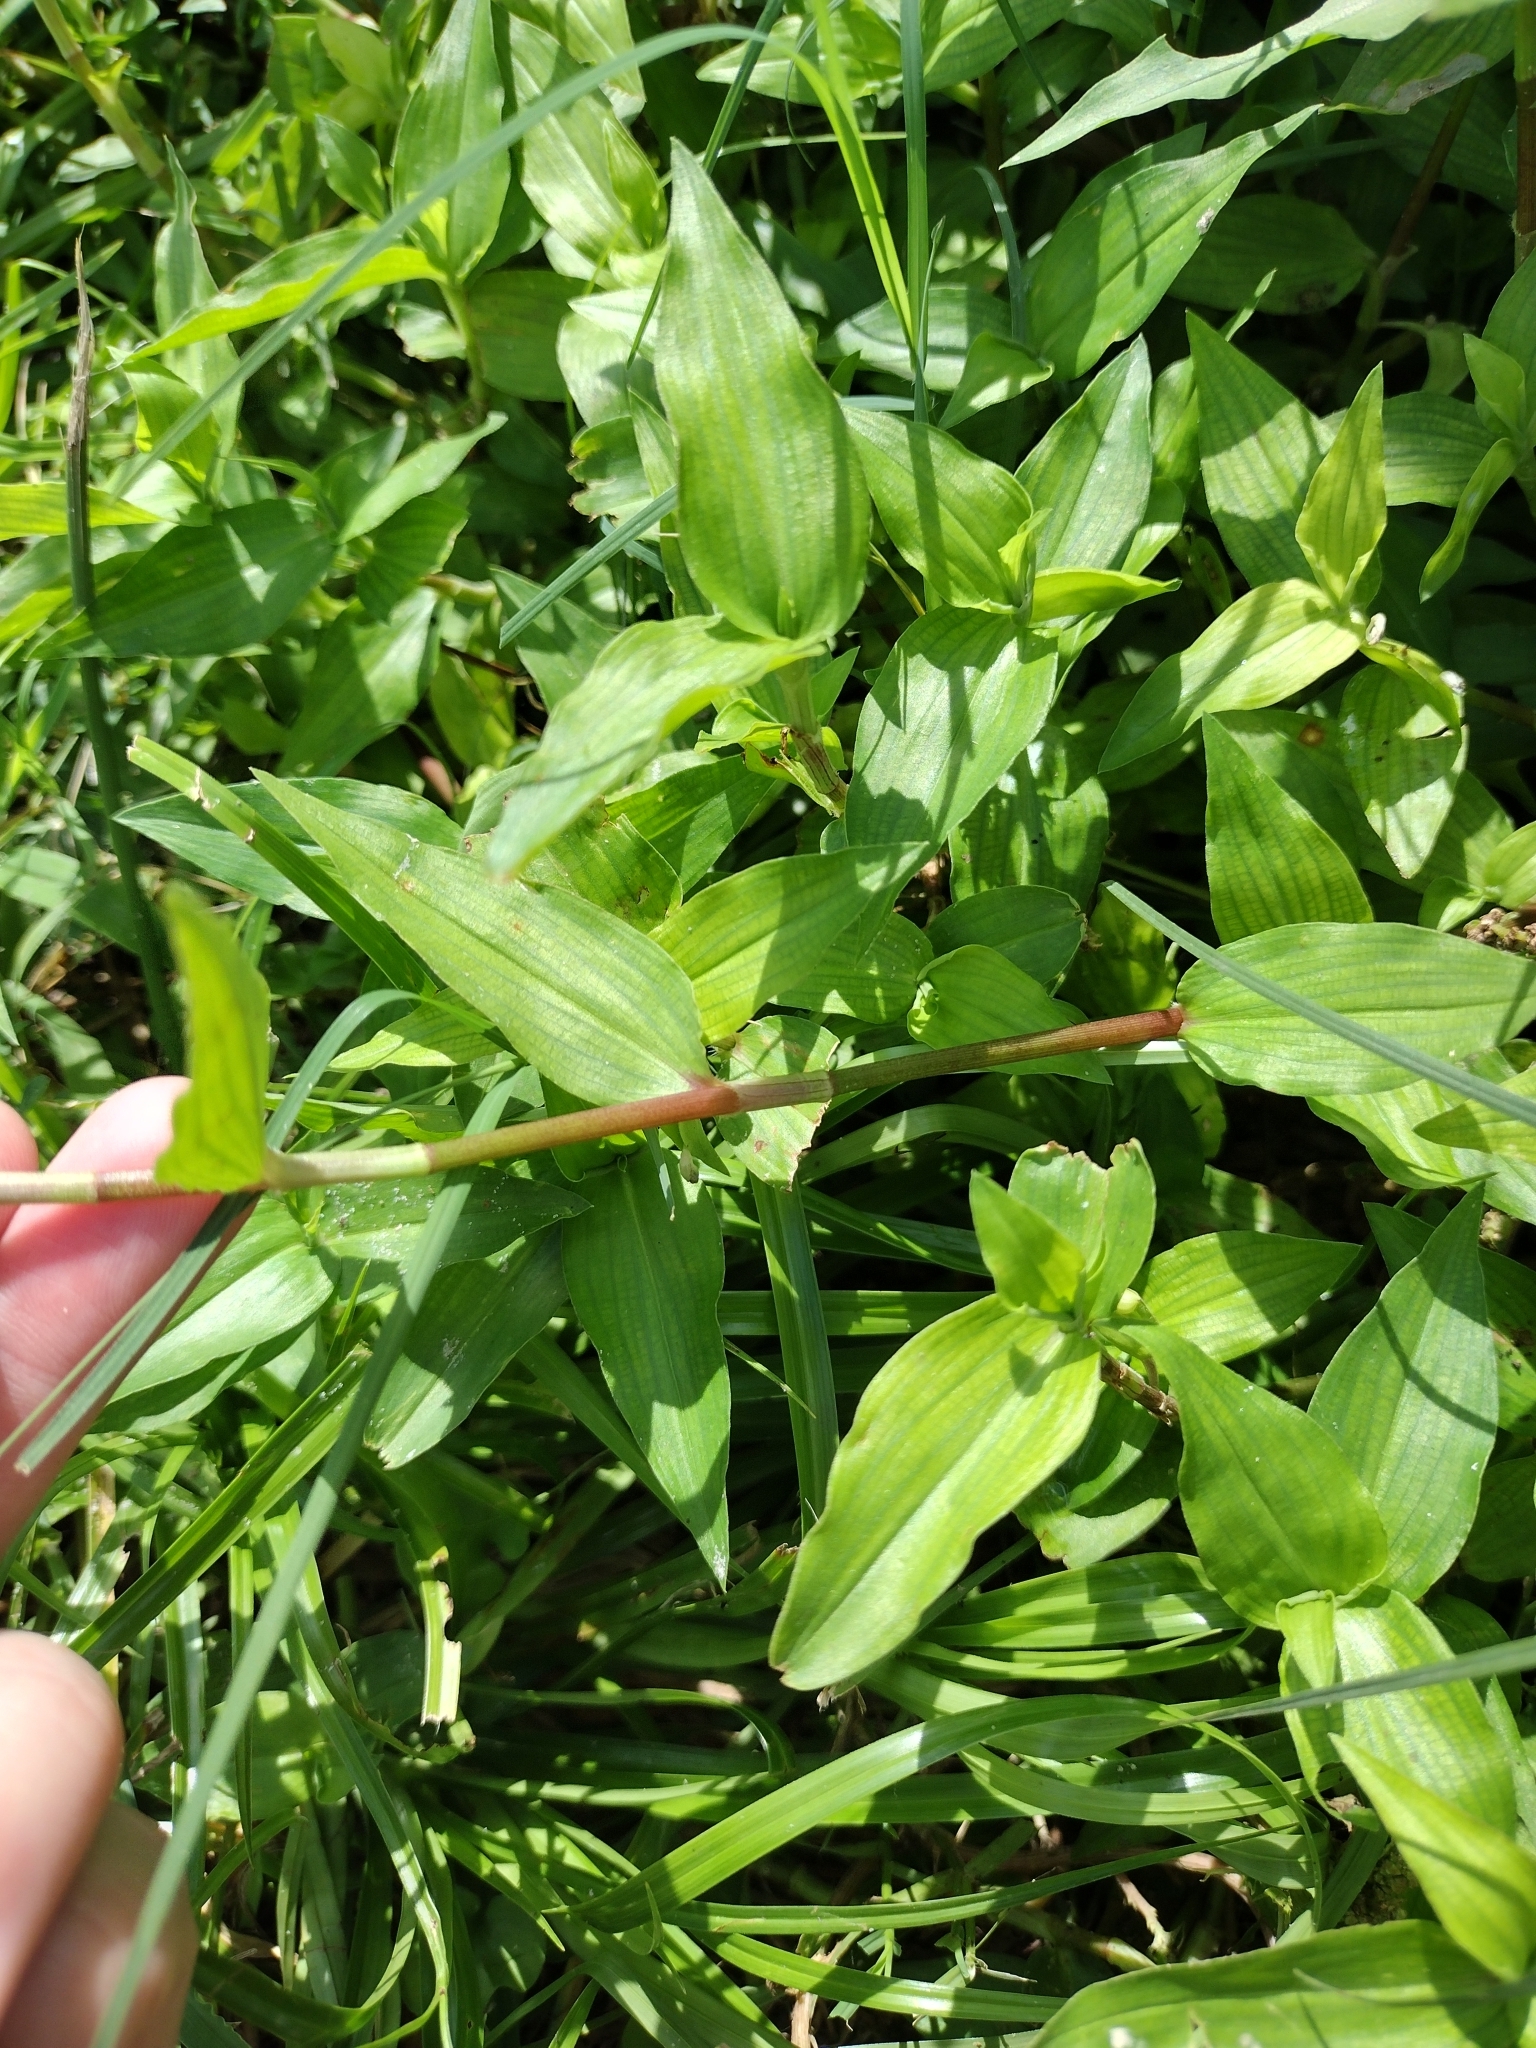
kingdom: Plantae
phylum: Tracheophyta
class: Liliopsida
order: Commelinales
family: Commelinaceae
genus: Commelina
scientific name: Commelina diffusa
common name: Climbing dayflower
